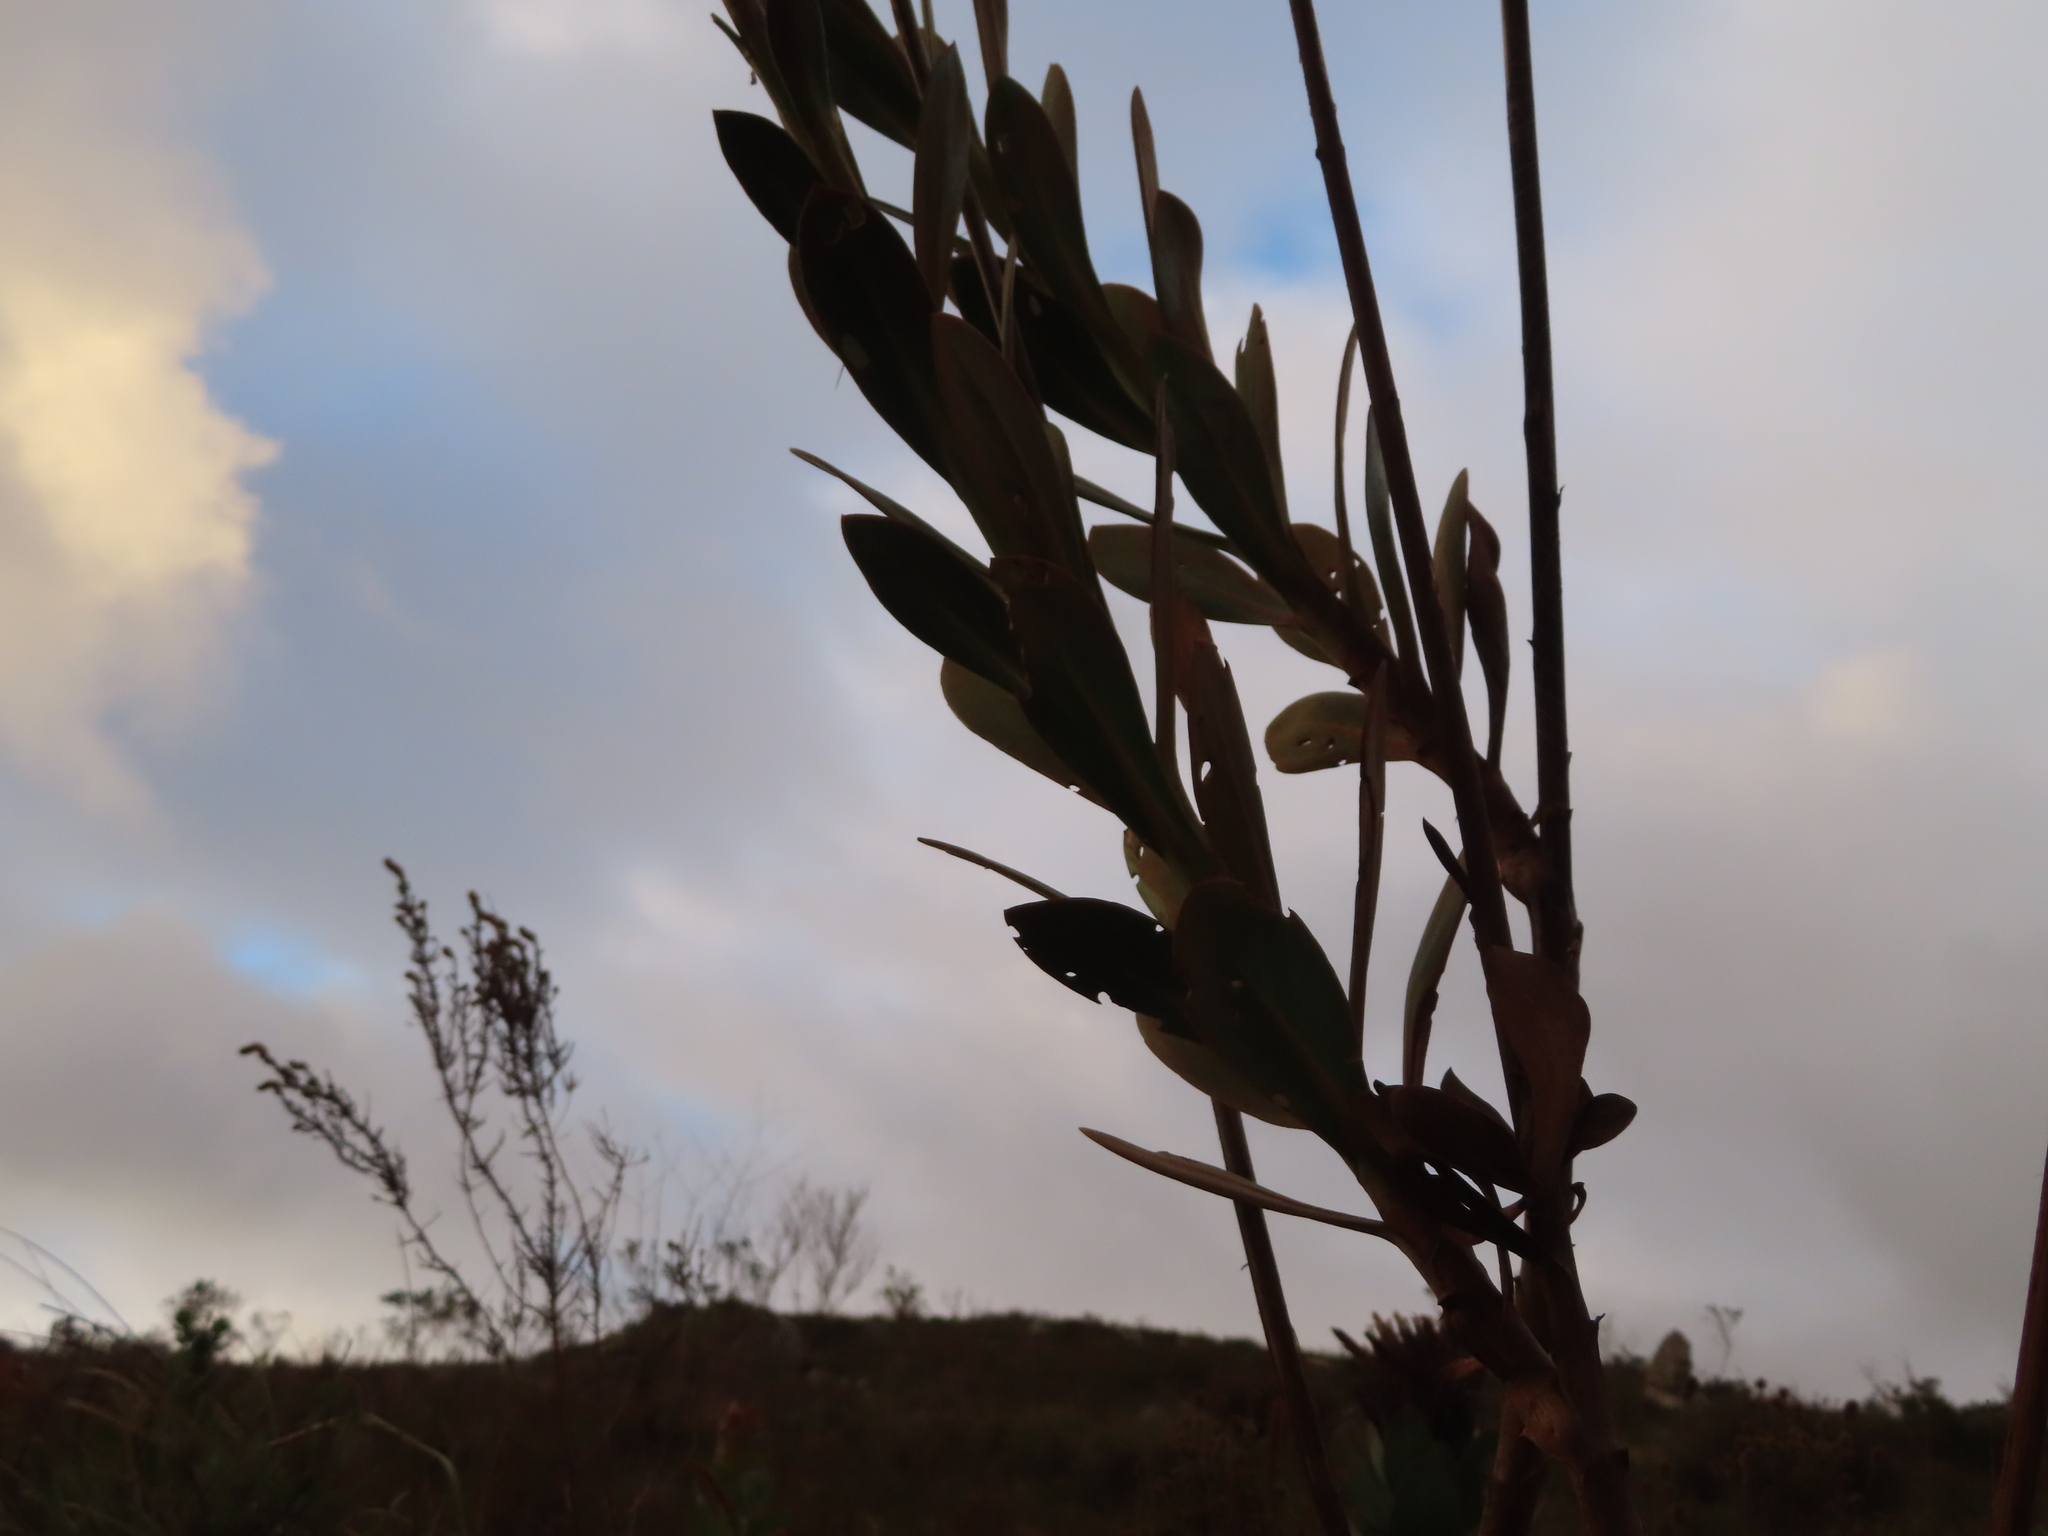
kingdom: Plantae
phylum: Tracheophyta
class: Magnoliopsida
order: Asterales
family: Asteraceae
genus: Othonna
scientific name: Othonna quinquedentata
